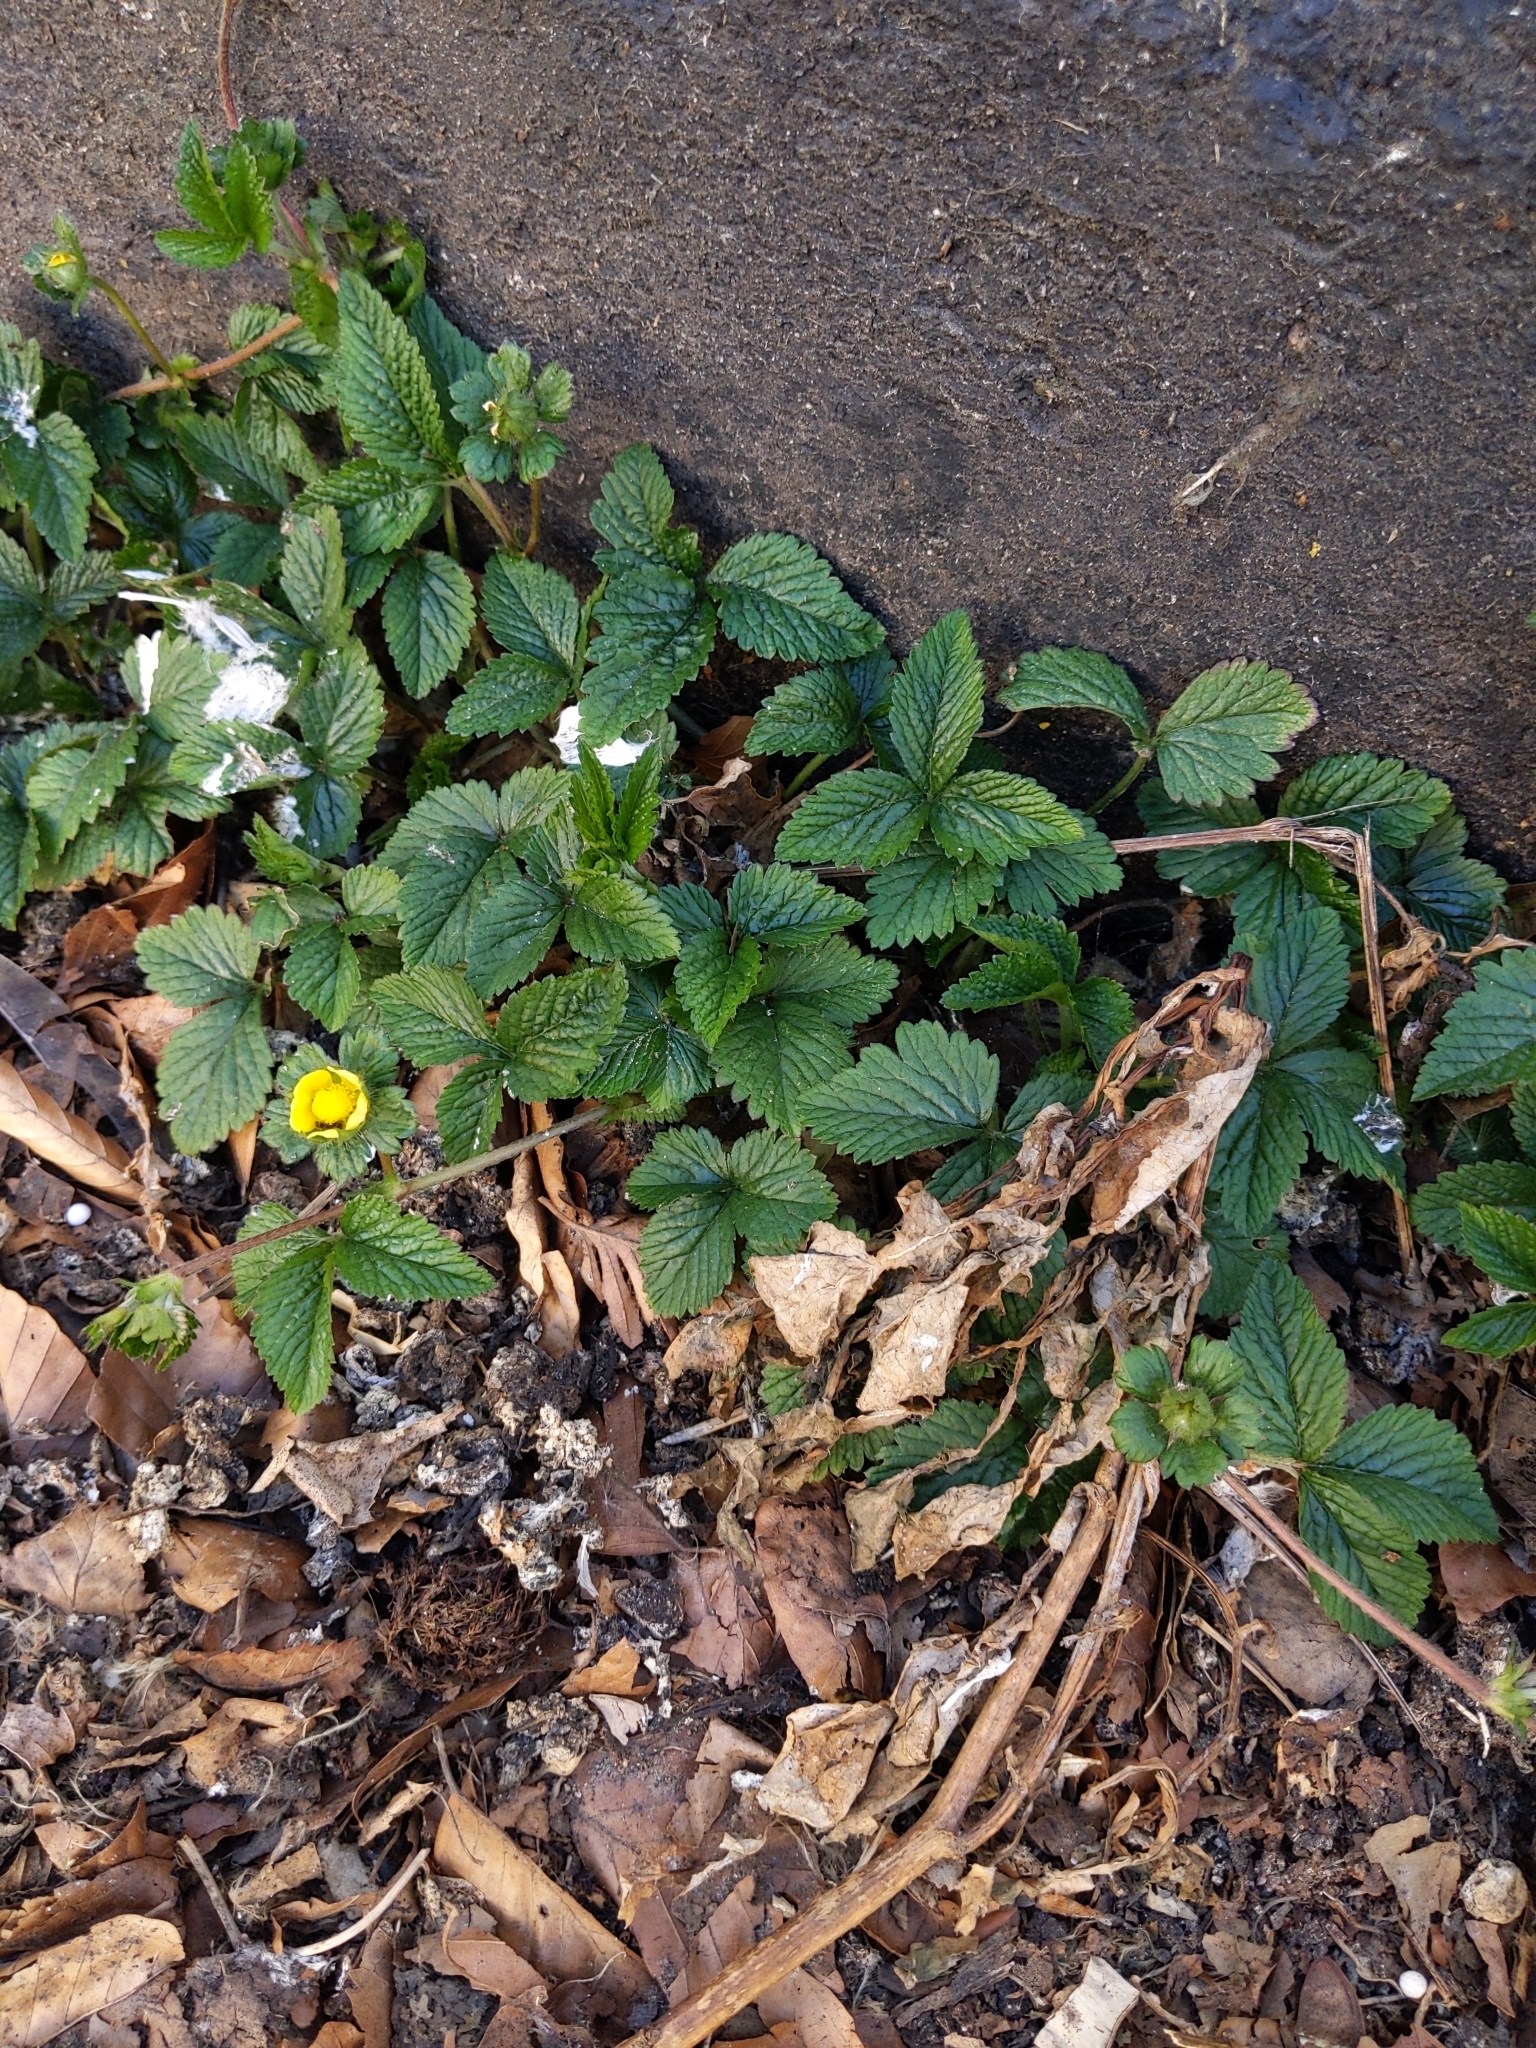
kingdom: Plantae
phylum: Tracheophyta
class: Magnoliopsida
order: Rosales
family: Rosaceae
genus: Potentilla
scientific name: Potentilla indica
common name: Yellow-flowered strawberry
